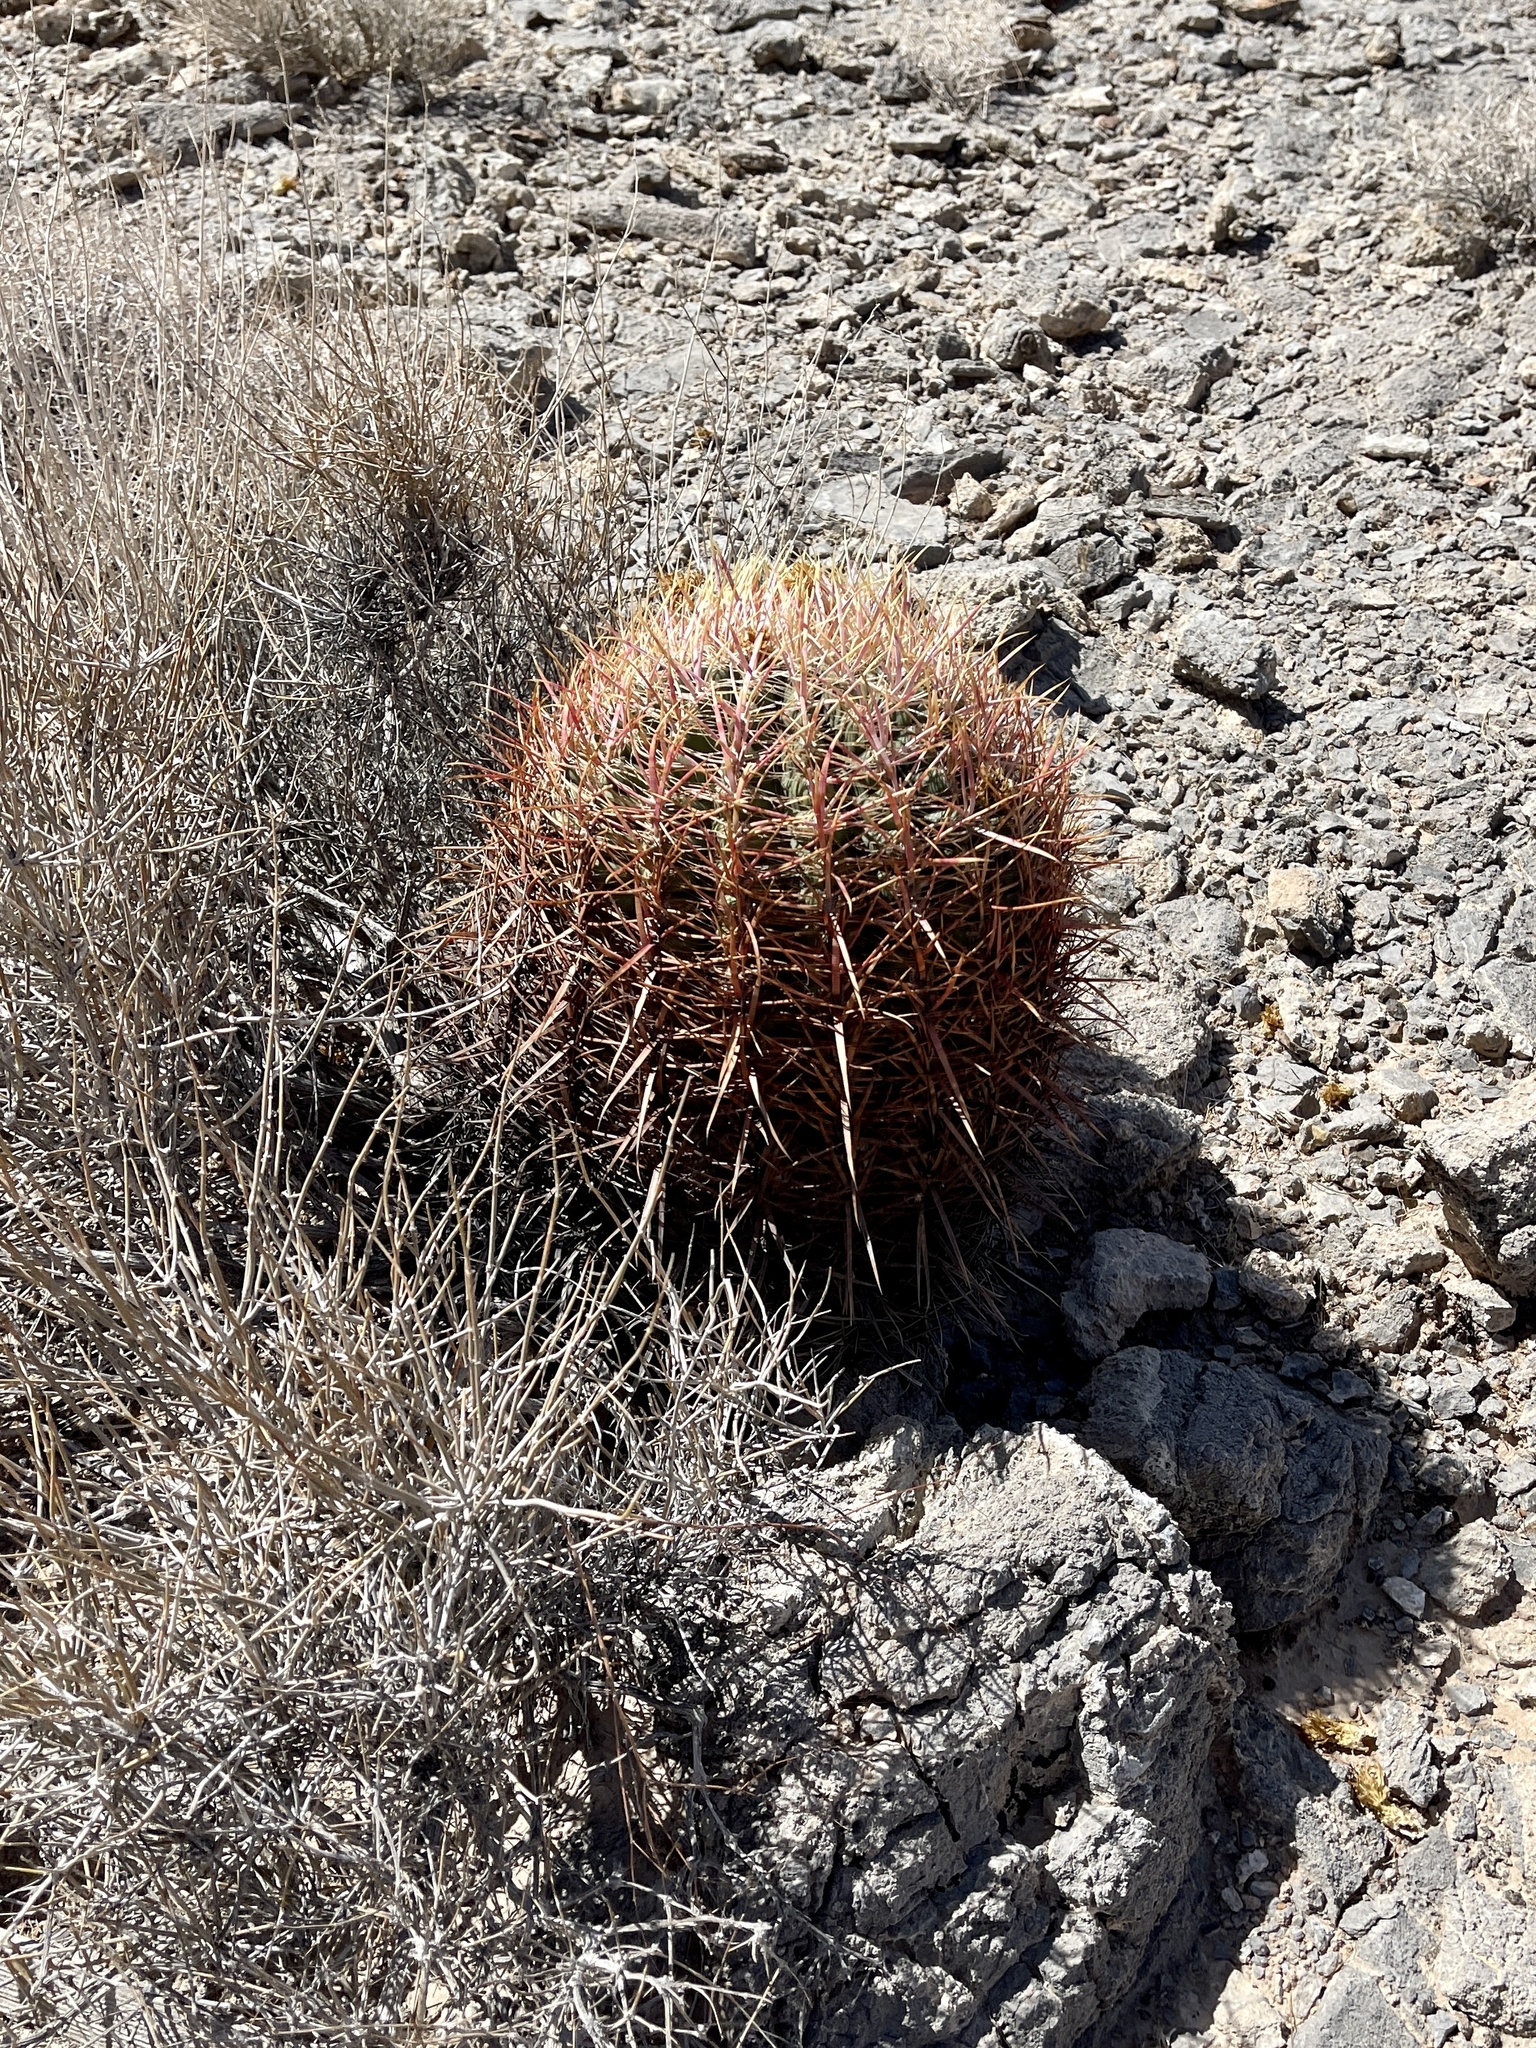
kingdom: Plantae
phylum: Tracheophyta
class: Magnoliopsida
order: Caryophyllales
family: Cactaceae
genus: Ferocactus
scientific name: Ferocactus cylindraceus
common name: California barrel cactus
